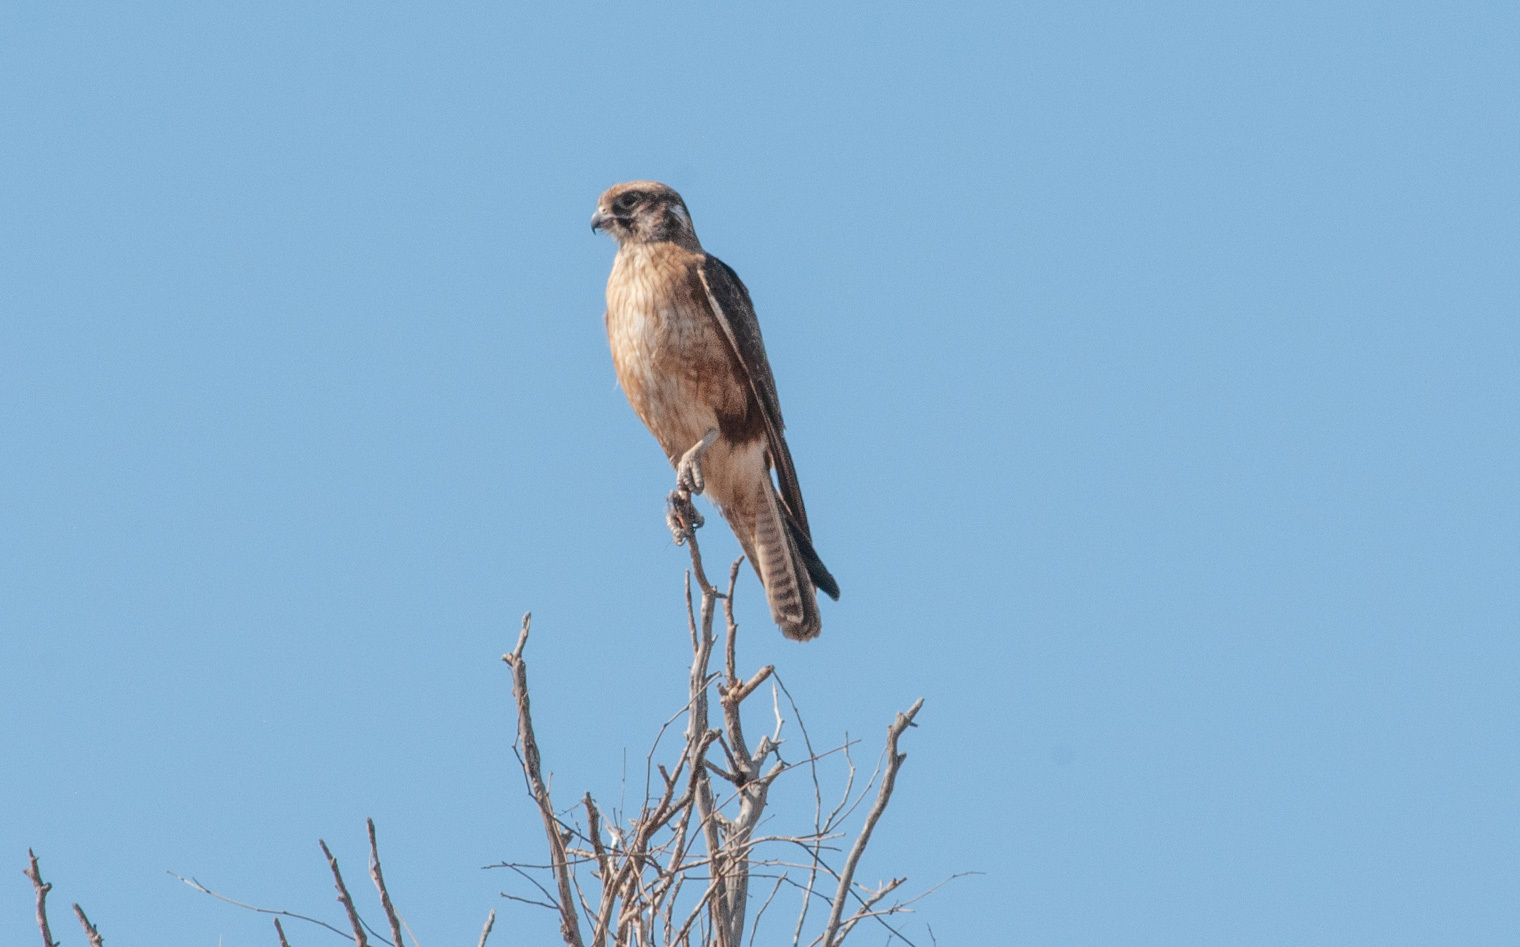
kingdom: Animalia
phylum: Chordata
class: Aves
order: Falconiformes
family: Falconidae
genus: Falco
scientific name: Falco berigora
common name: Brown falcon
